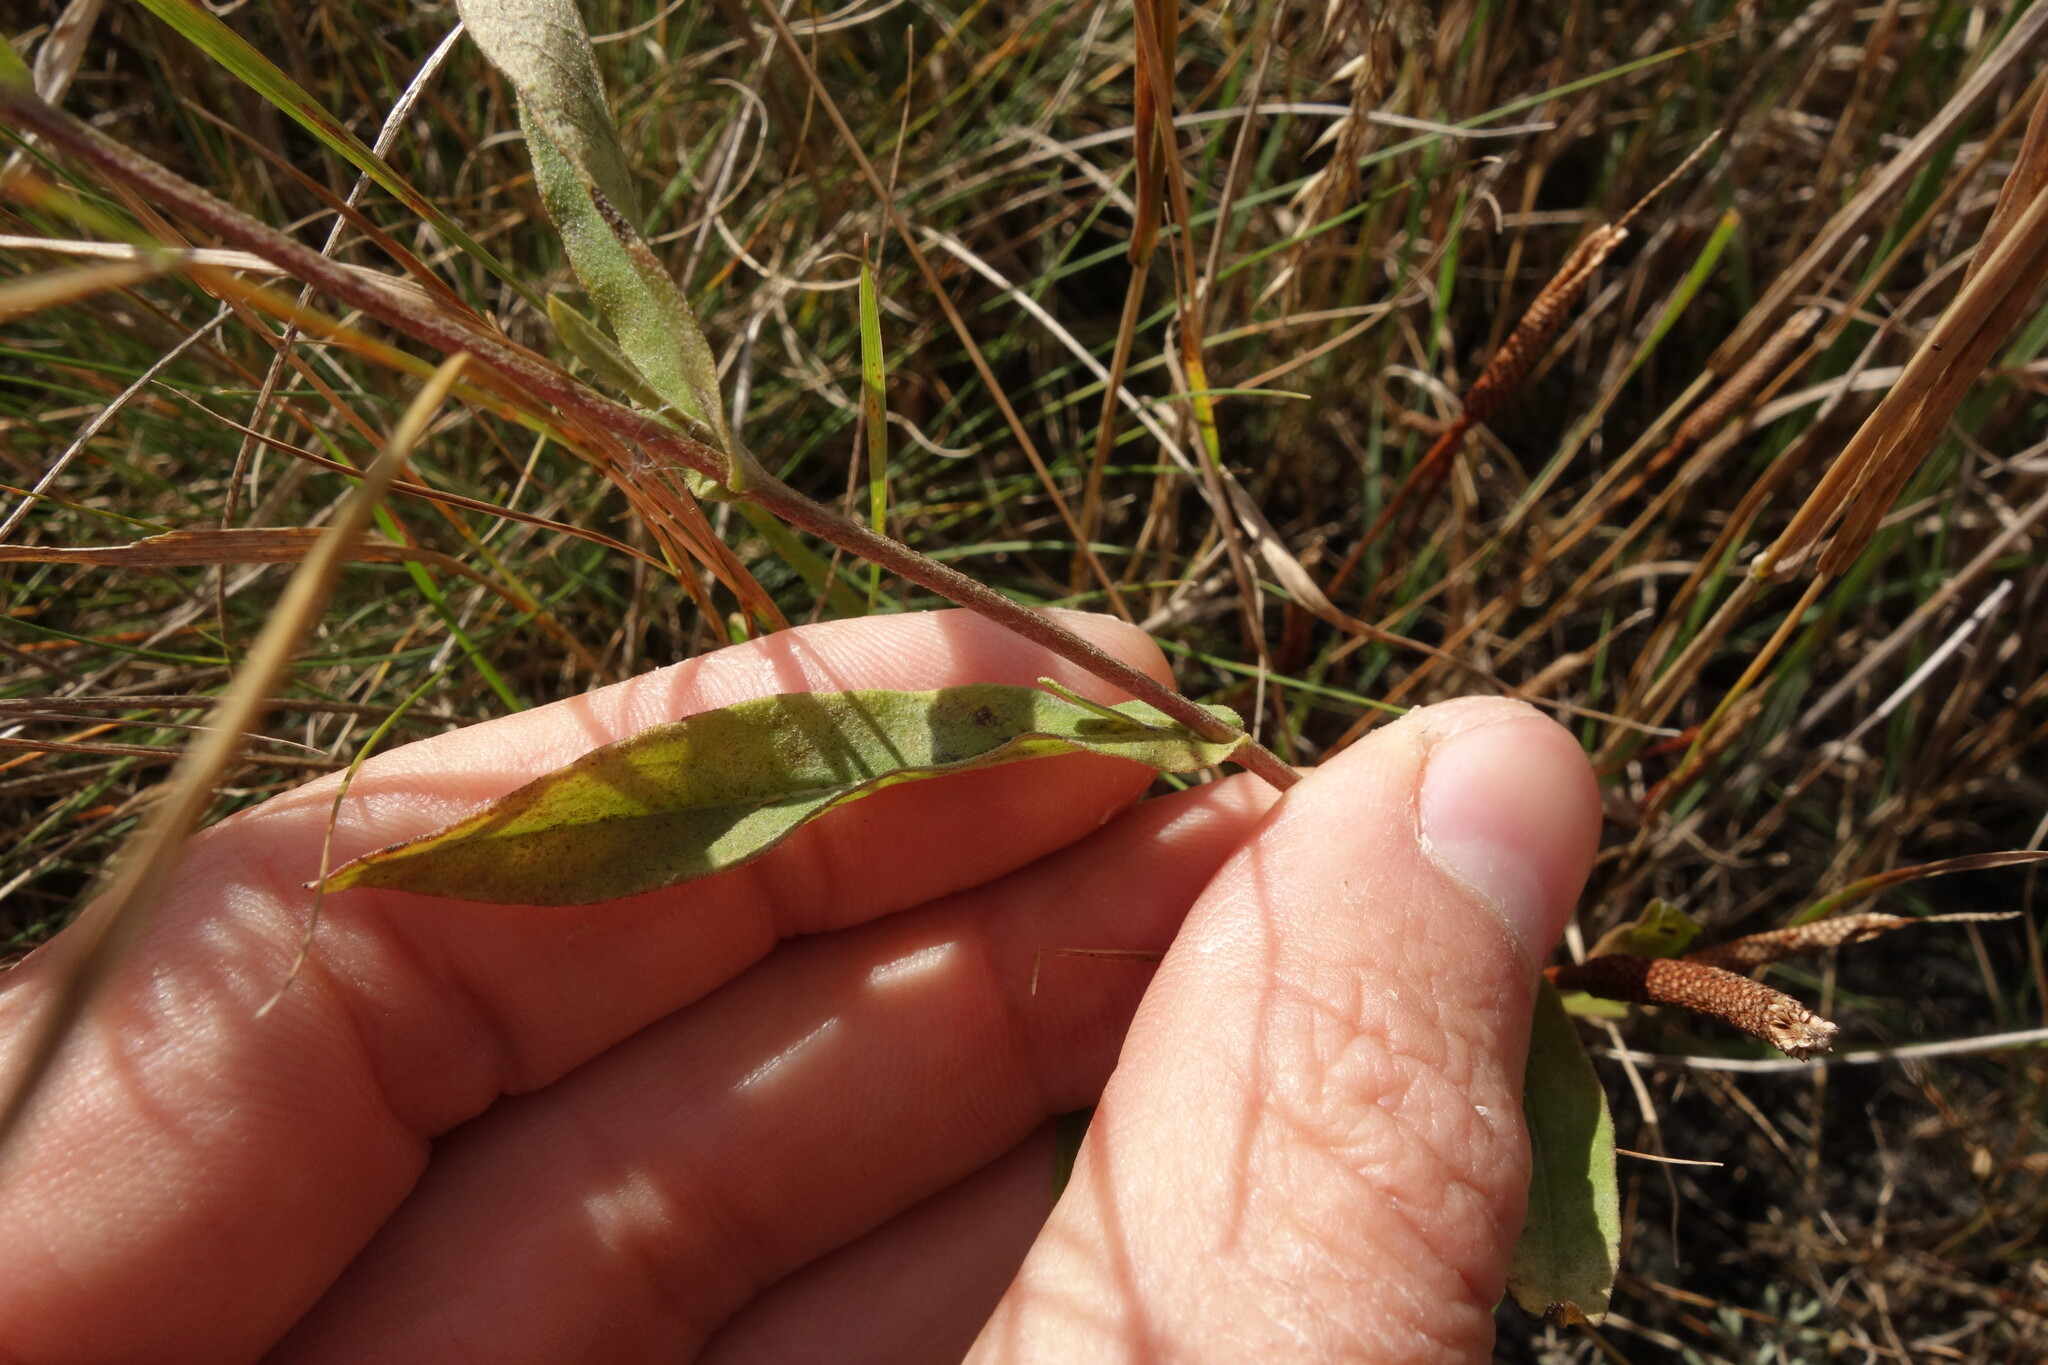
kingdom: Plantae
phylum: Tracheophyta
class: Magnoliopsida
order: Asterales
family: Asteraceae
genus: Pentanema
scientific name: Pentanema britannicum
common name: British elecampane
